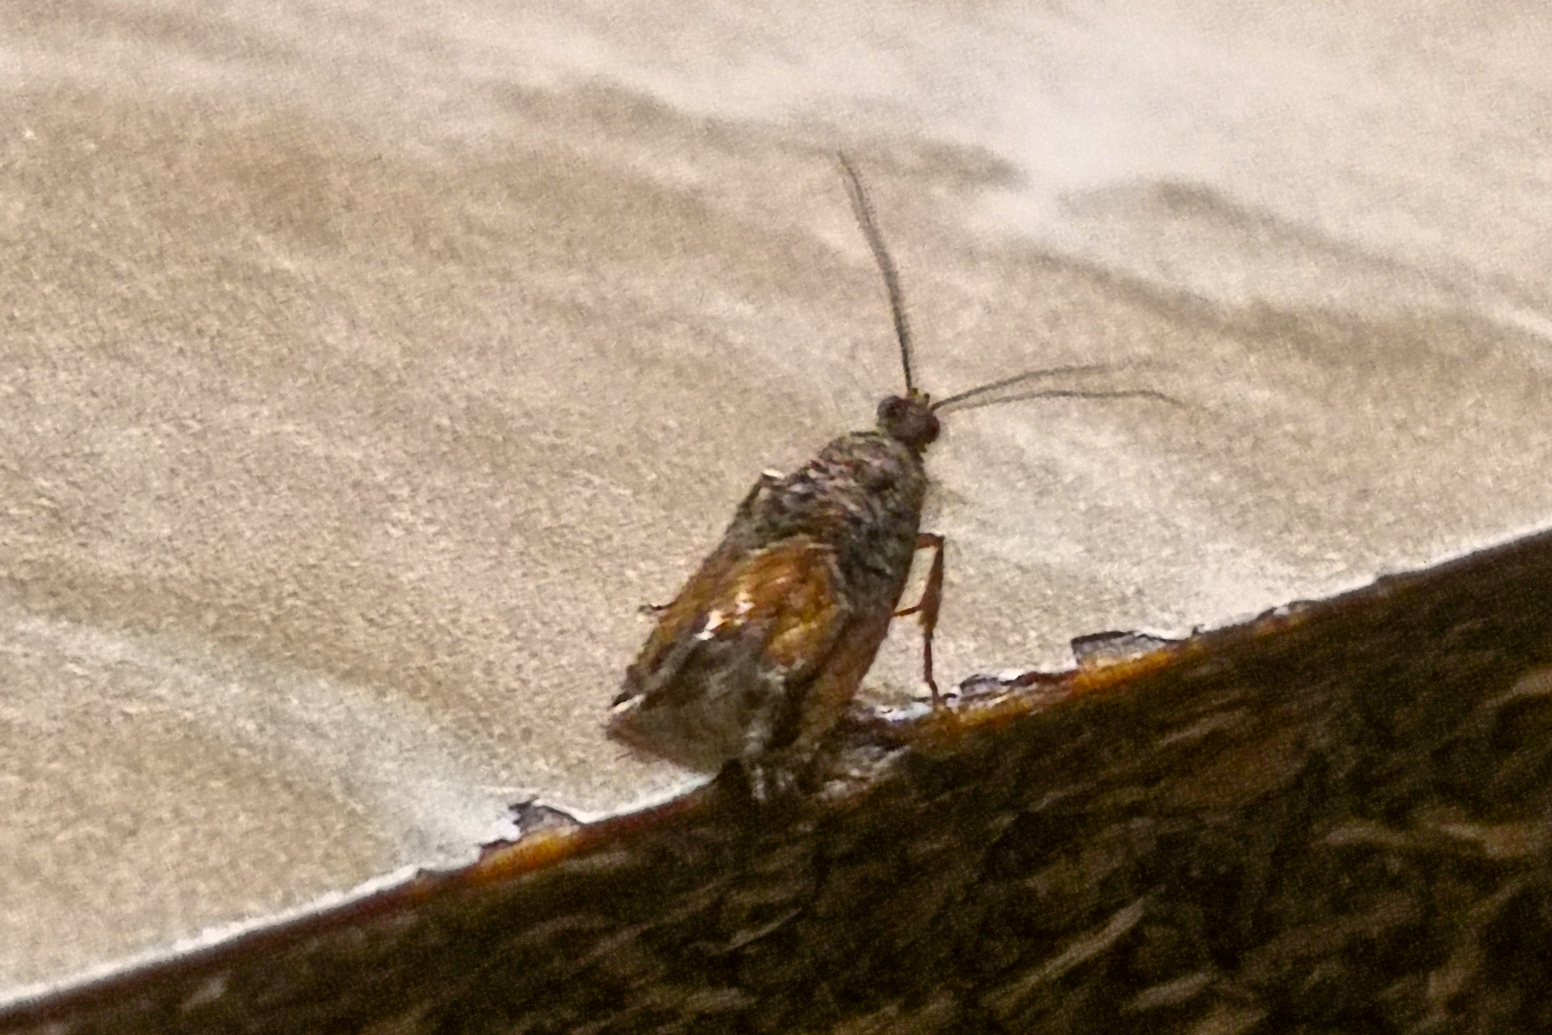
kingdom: Animalia
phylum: Arthropoda
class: Insecta
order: Lepidoptera
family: Tortricidae
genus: Epinotia
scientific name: Epinotia nisella
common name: Grey poplar bell
